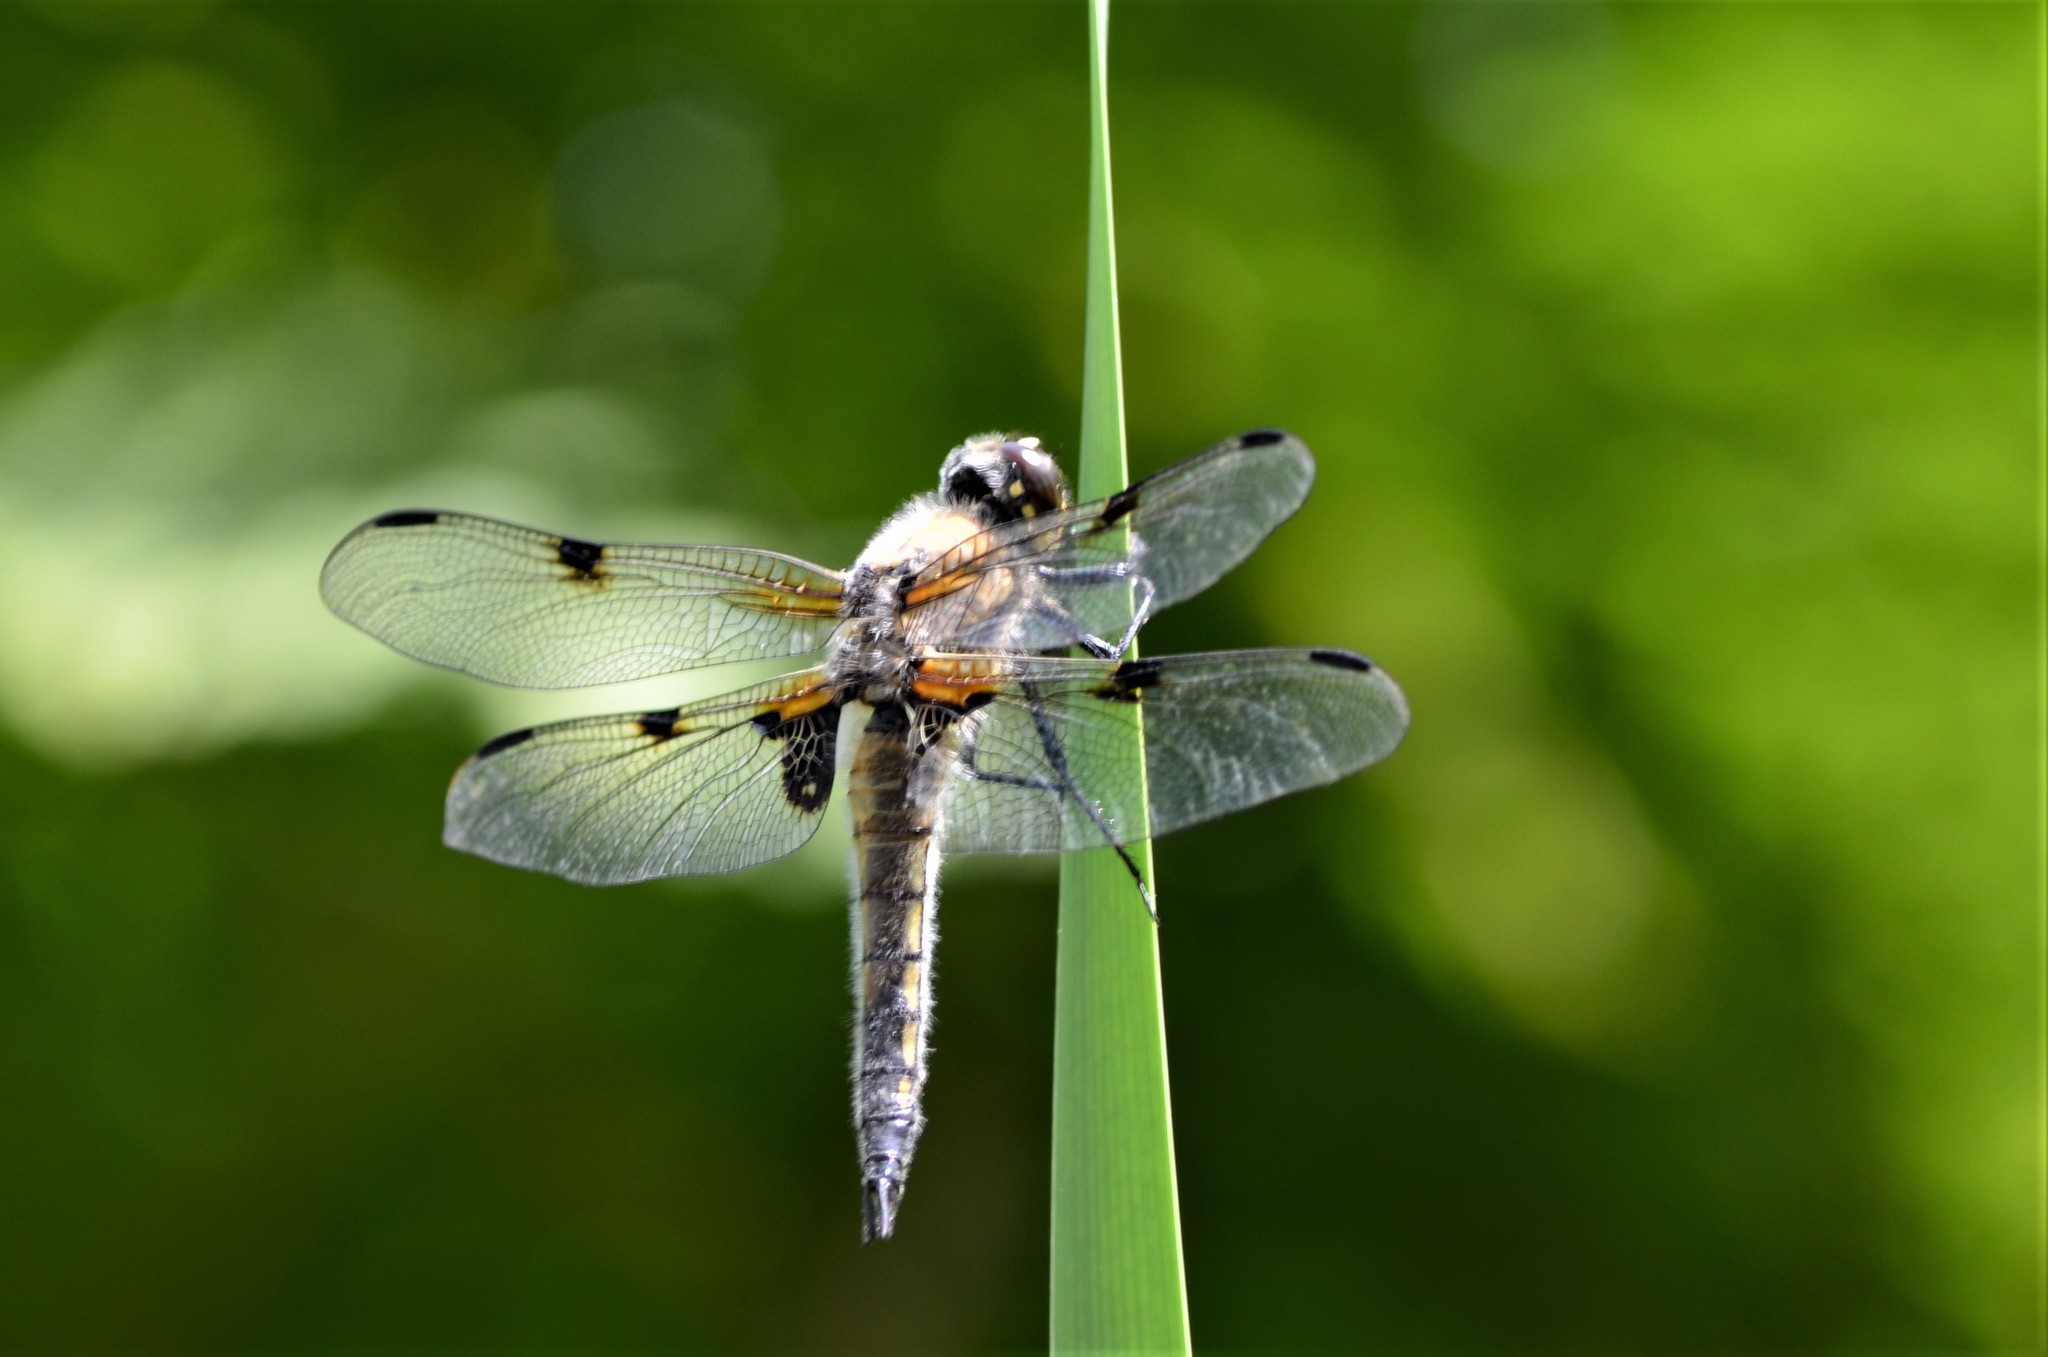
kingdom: Animalia
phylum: Arthropoda
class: Insecta
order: Odonata
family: Libellulidae
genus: Libellula
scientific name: Libellula quadrimaculata
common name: Four-spotted chaser
